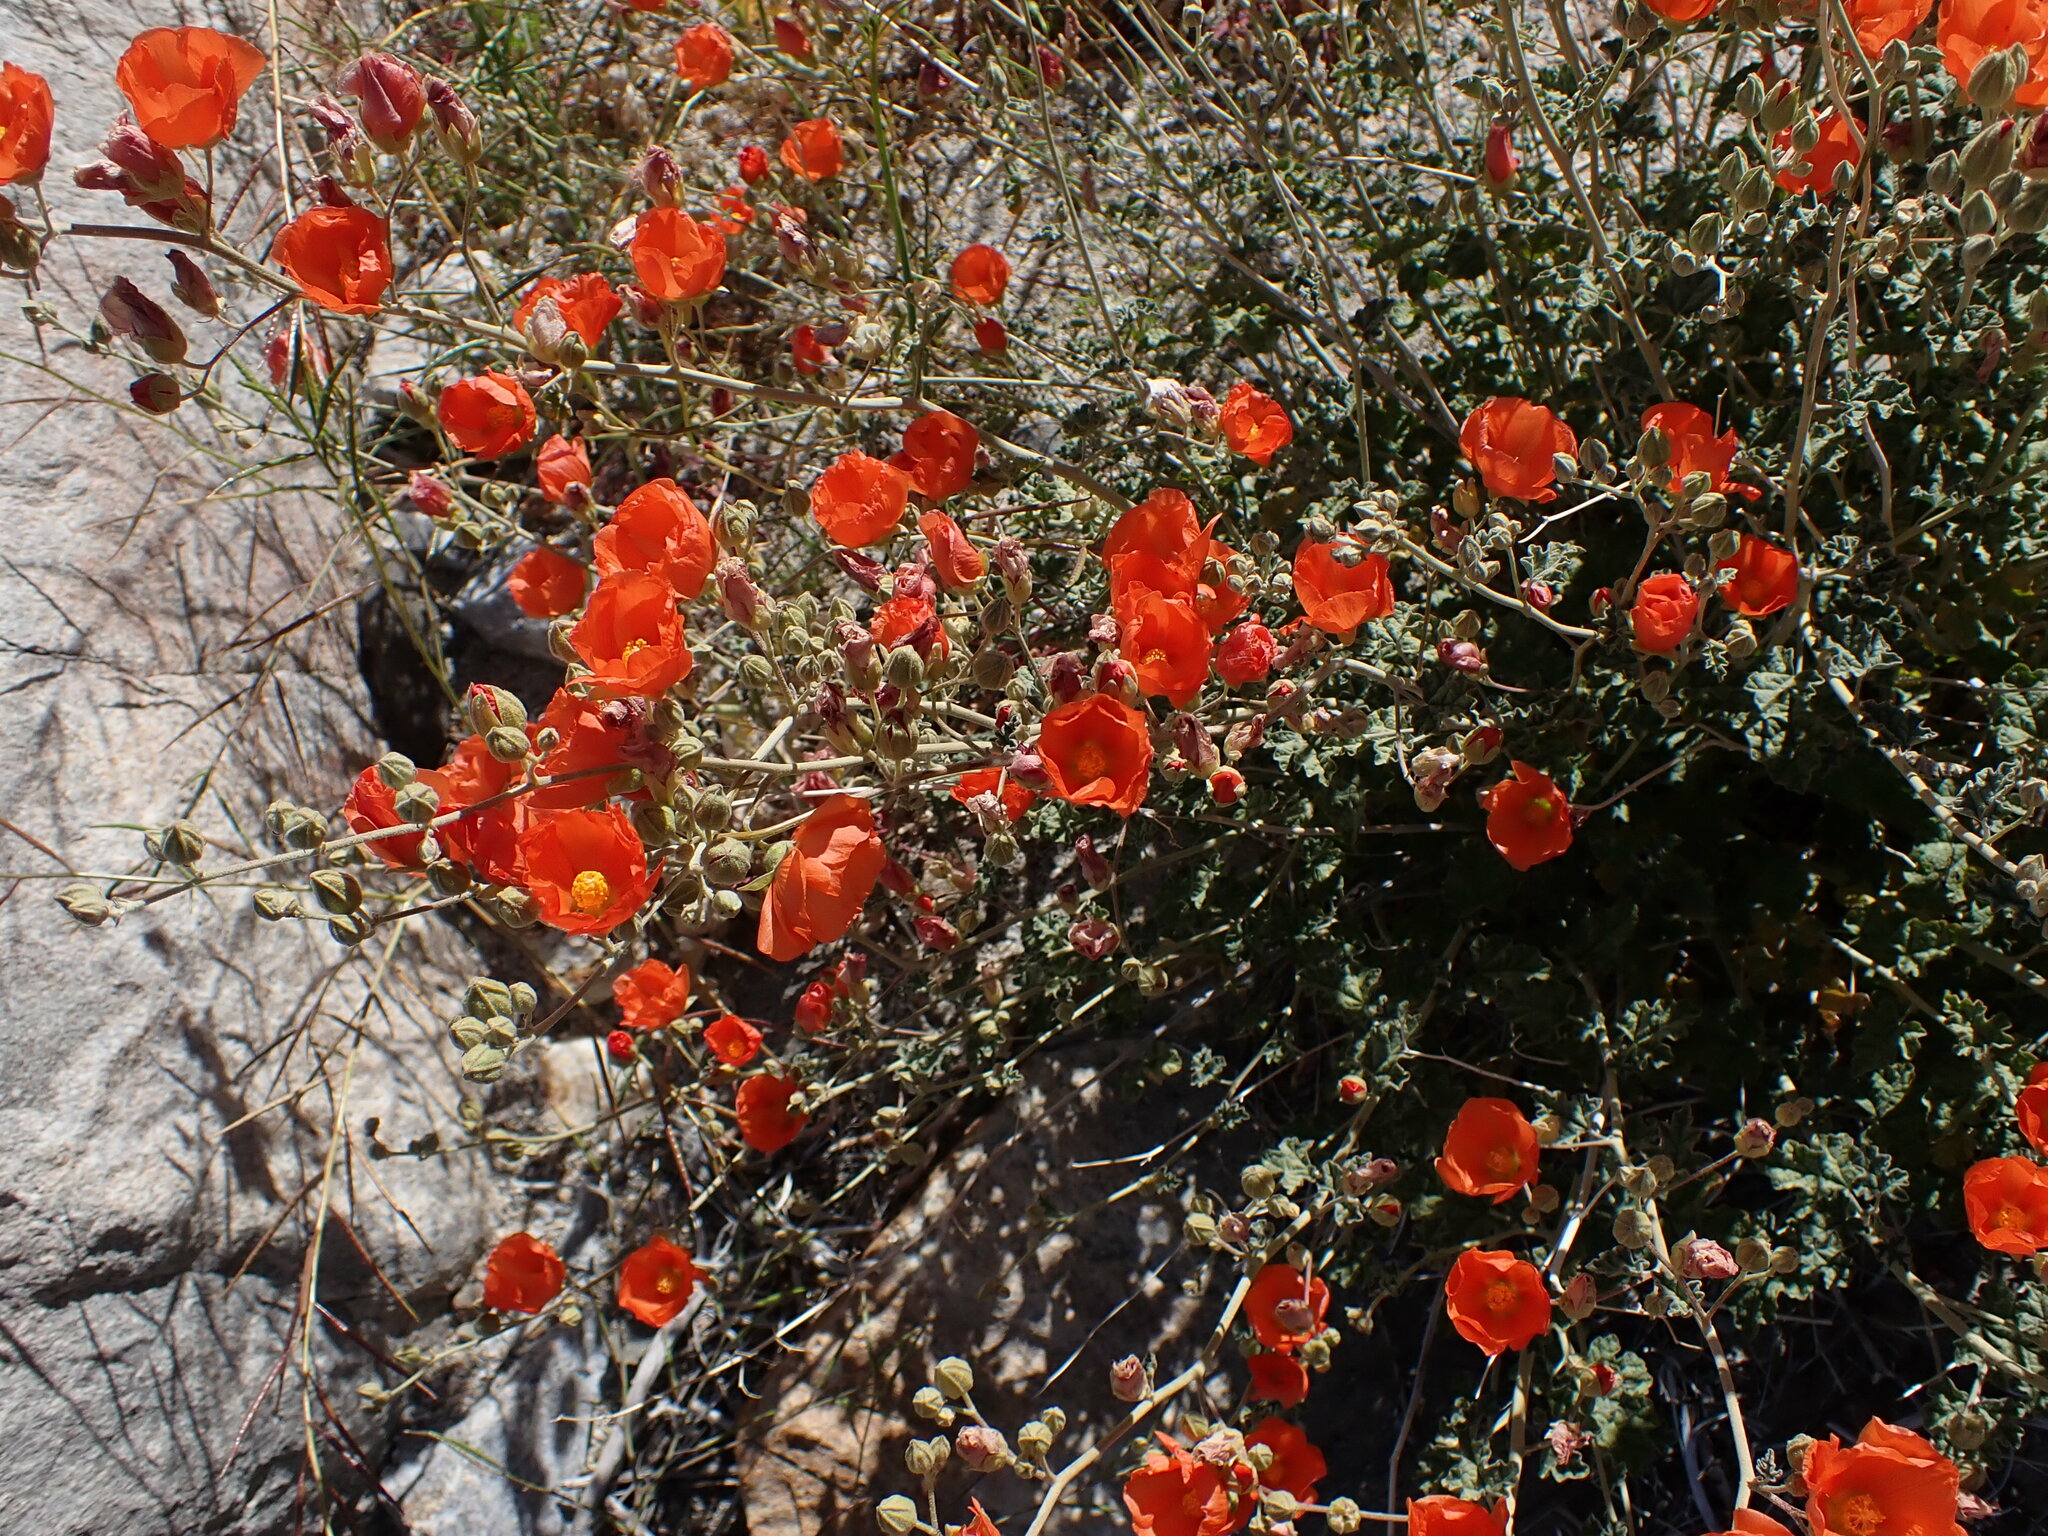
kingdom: Plantae
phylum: Tracheophyta
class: Magnoliopsida
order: Malvales
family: Malvaceae
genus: Sphaeralcea
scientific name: Sphaeralcea ambigua
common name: Apricot globe-mallow
